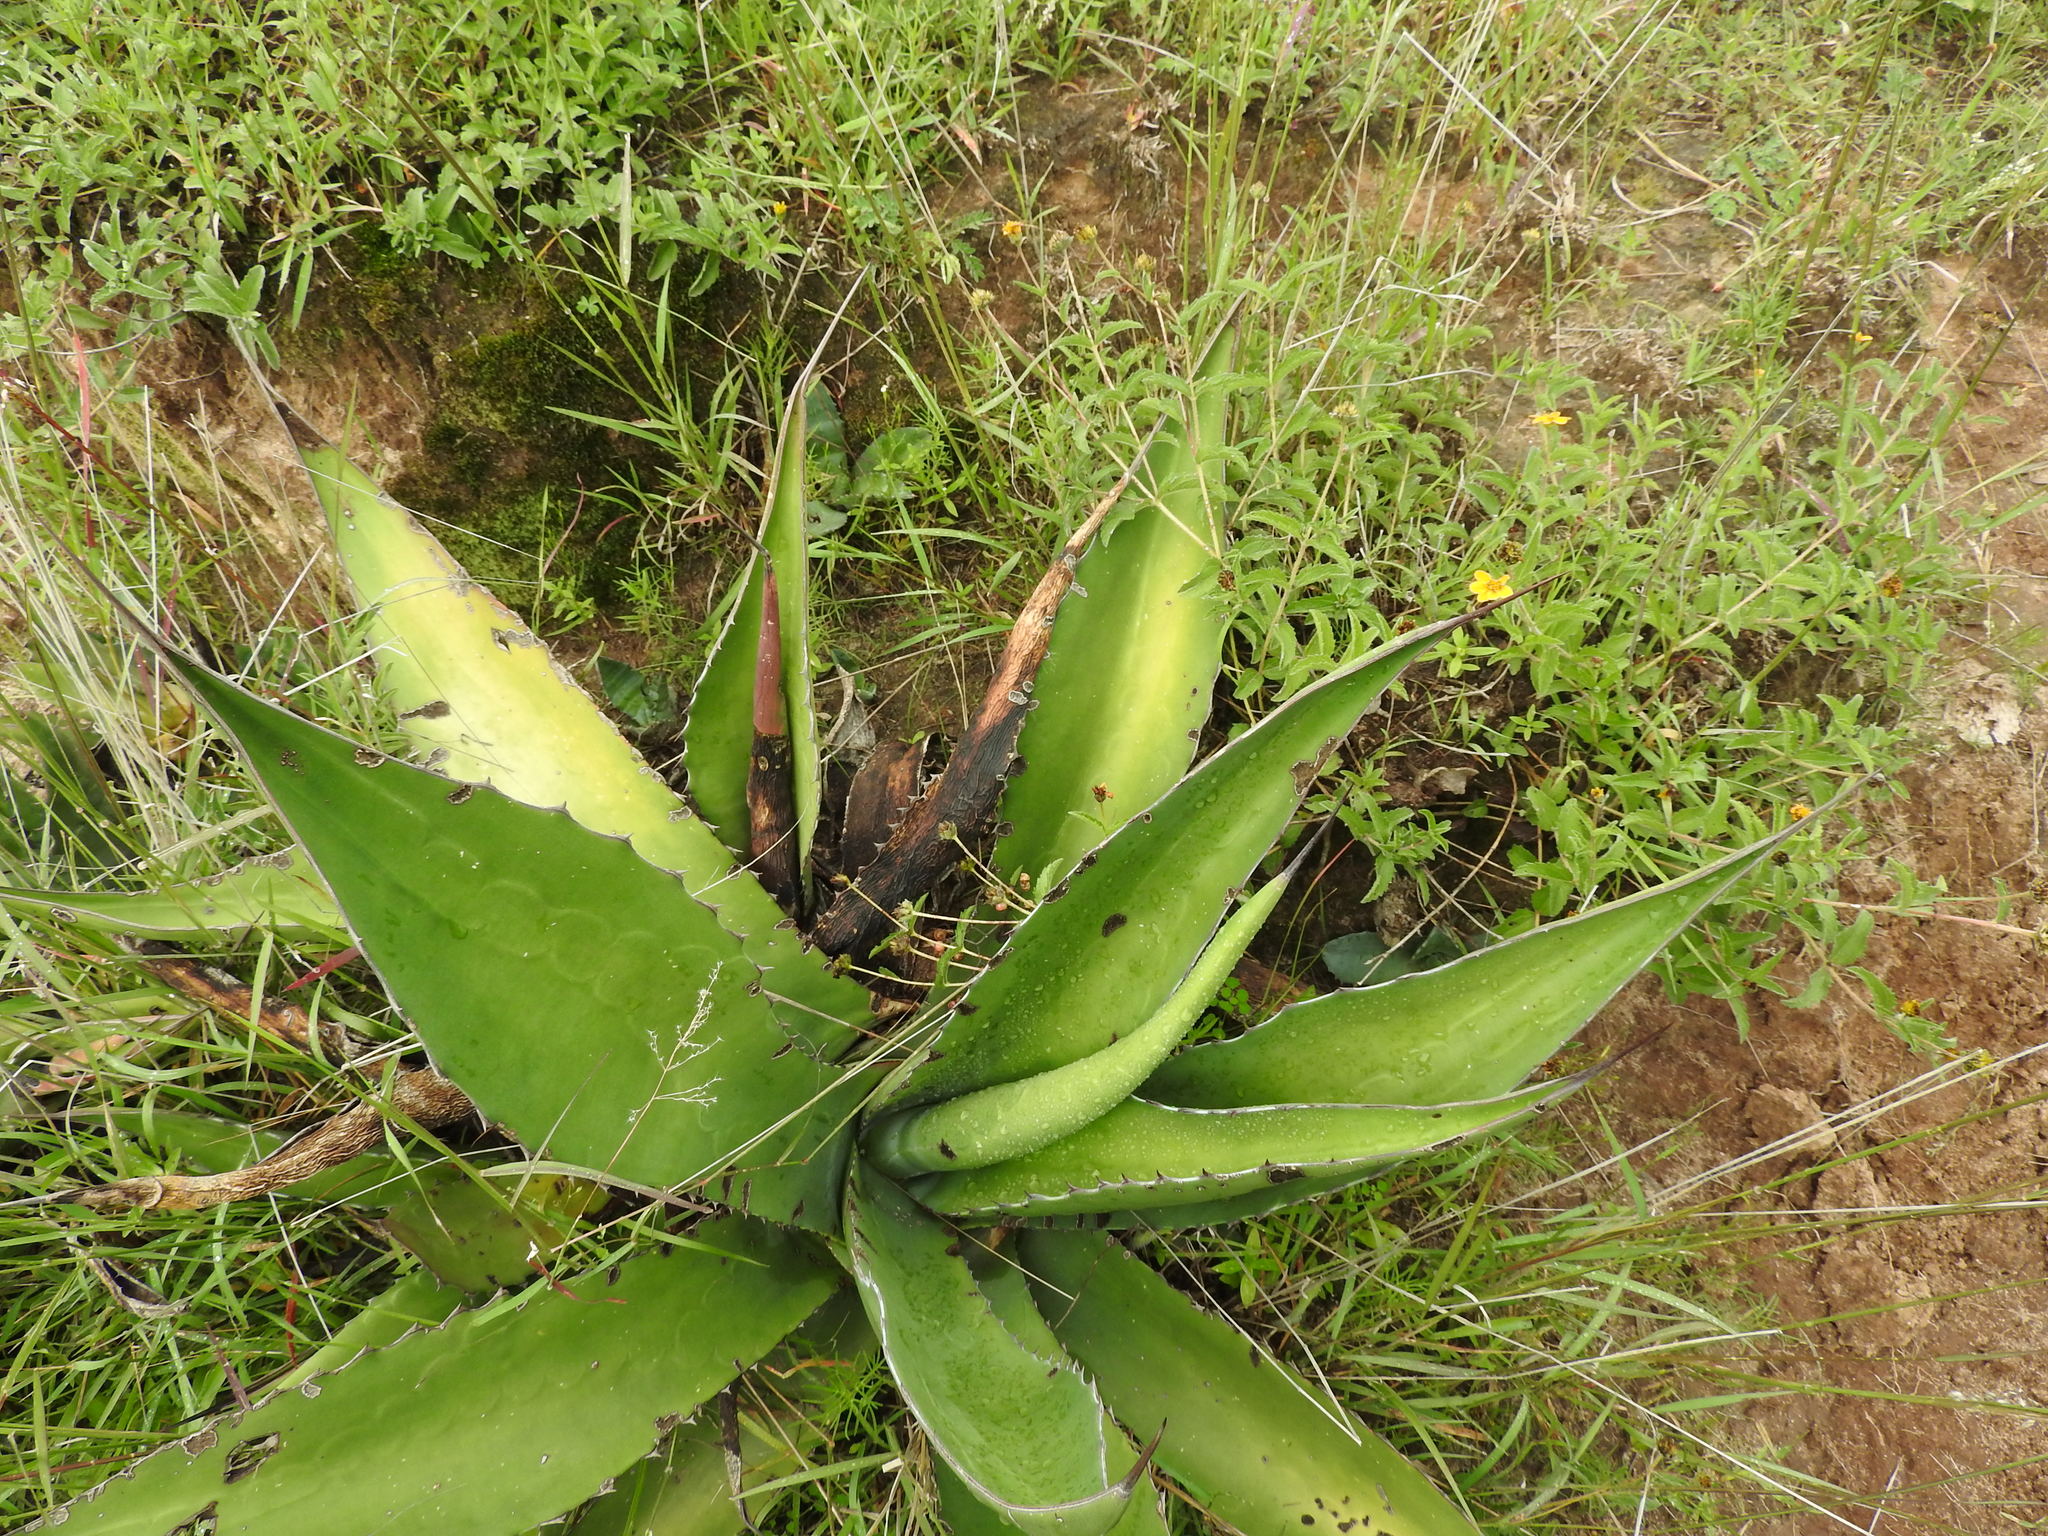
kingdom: Plantae
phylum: Tracheophyta
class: Liliopsida
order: Asparagales
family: Asparagaceae
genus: Agave
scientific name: Agave salmiana
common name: Pulque agave
